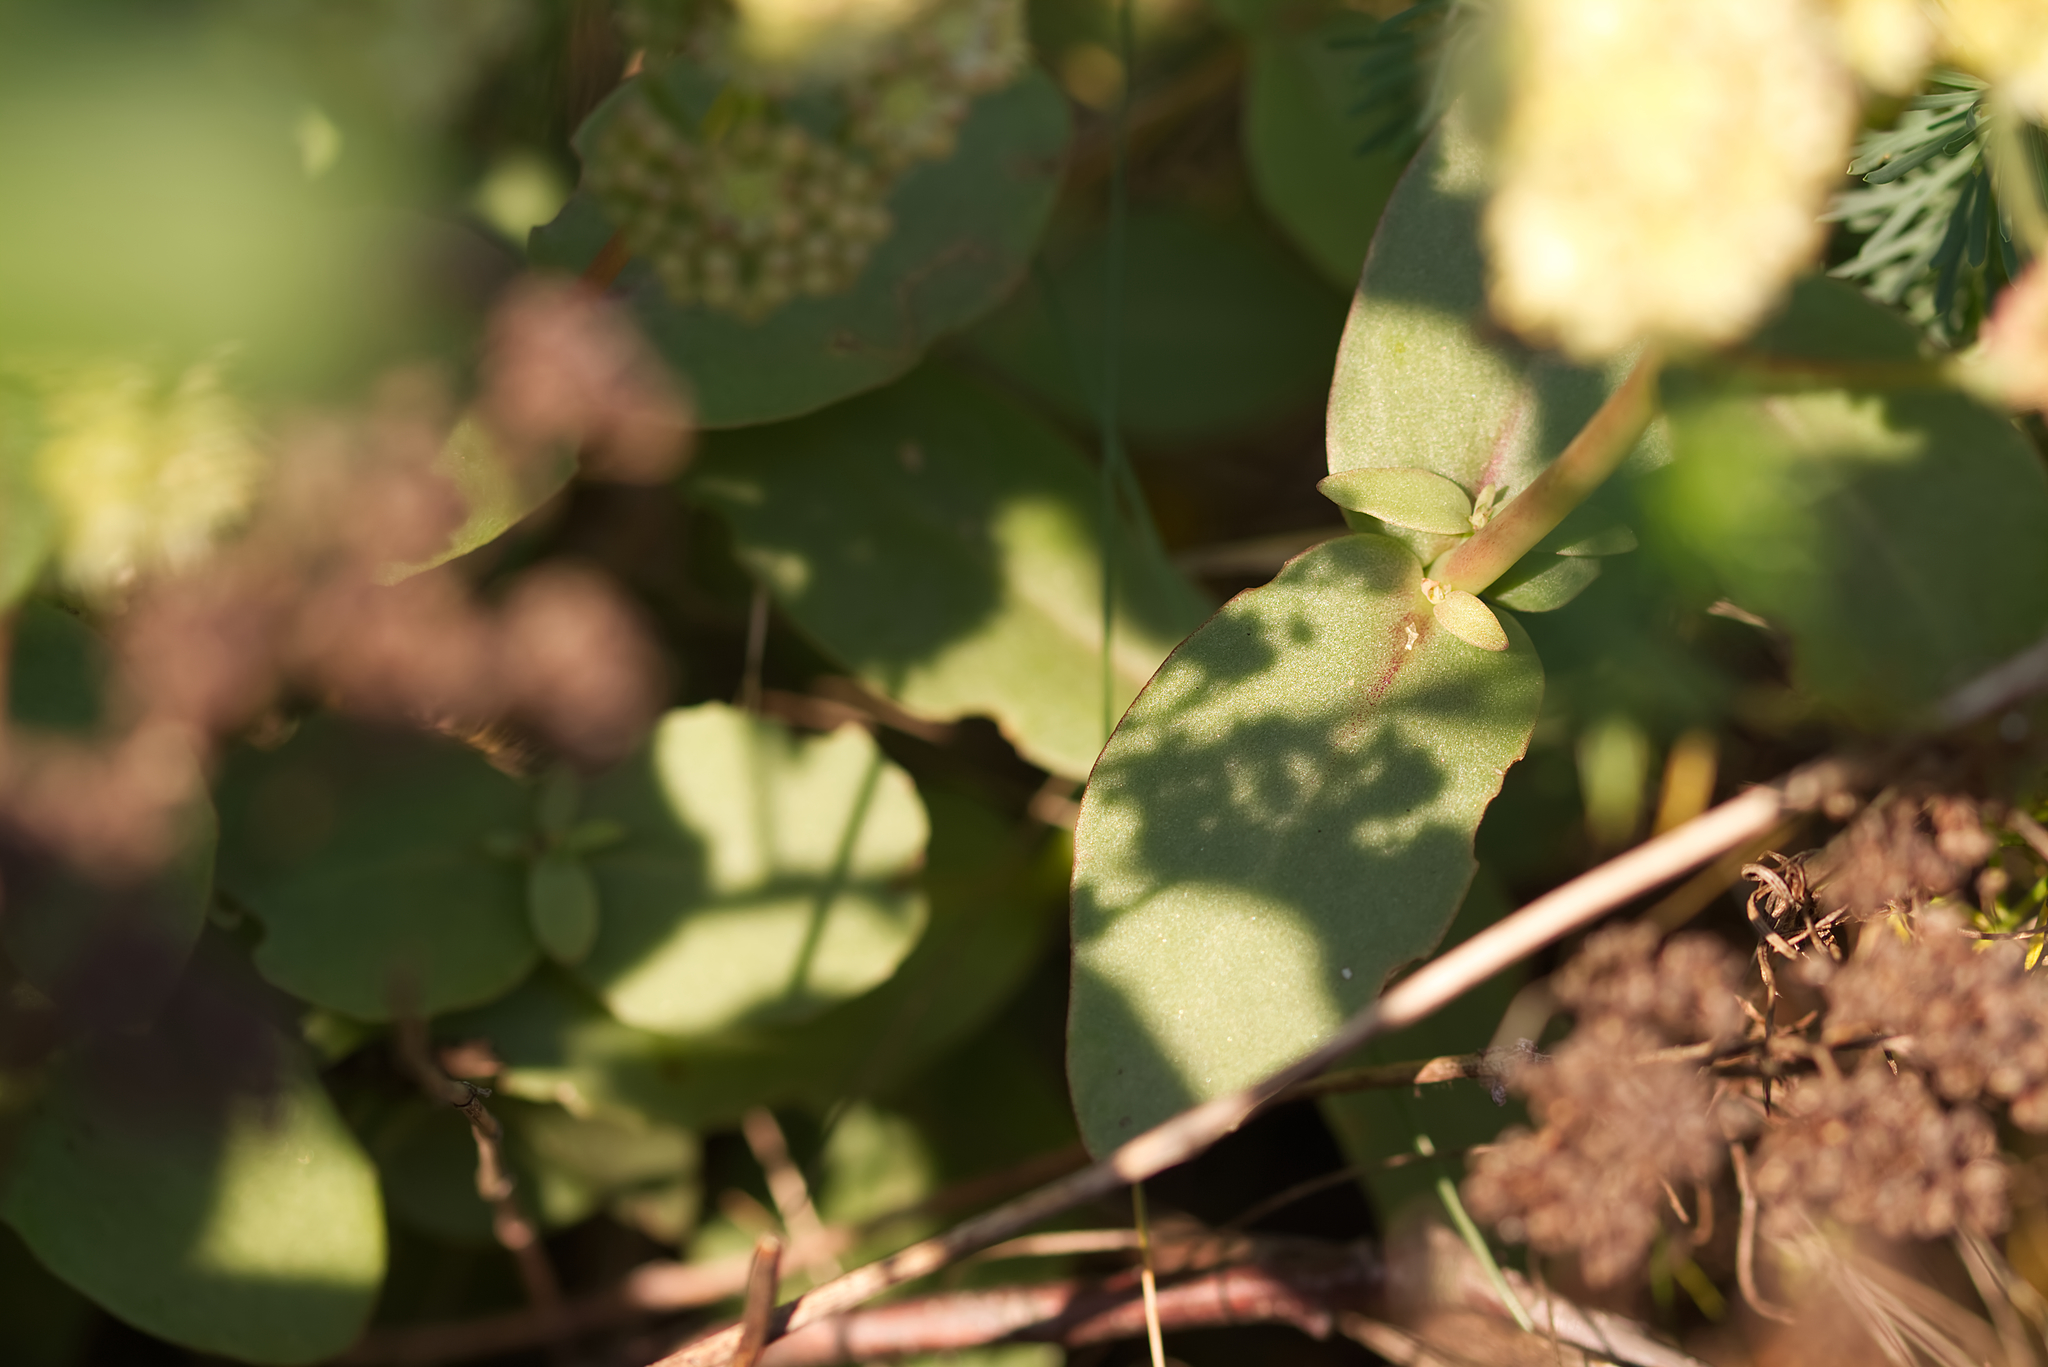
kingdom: Plantae
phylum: Tracheophyta
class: Magnoliopsida
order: Saxifragales
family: Crassulaceae
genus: Hylotelephium
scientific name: Hylotelephium maximum
